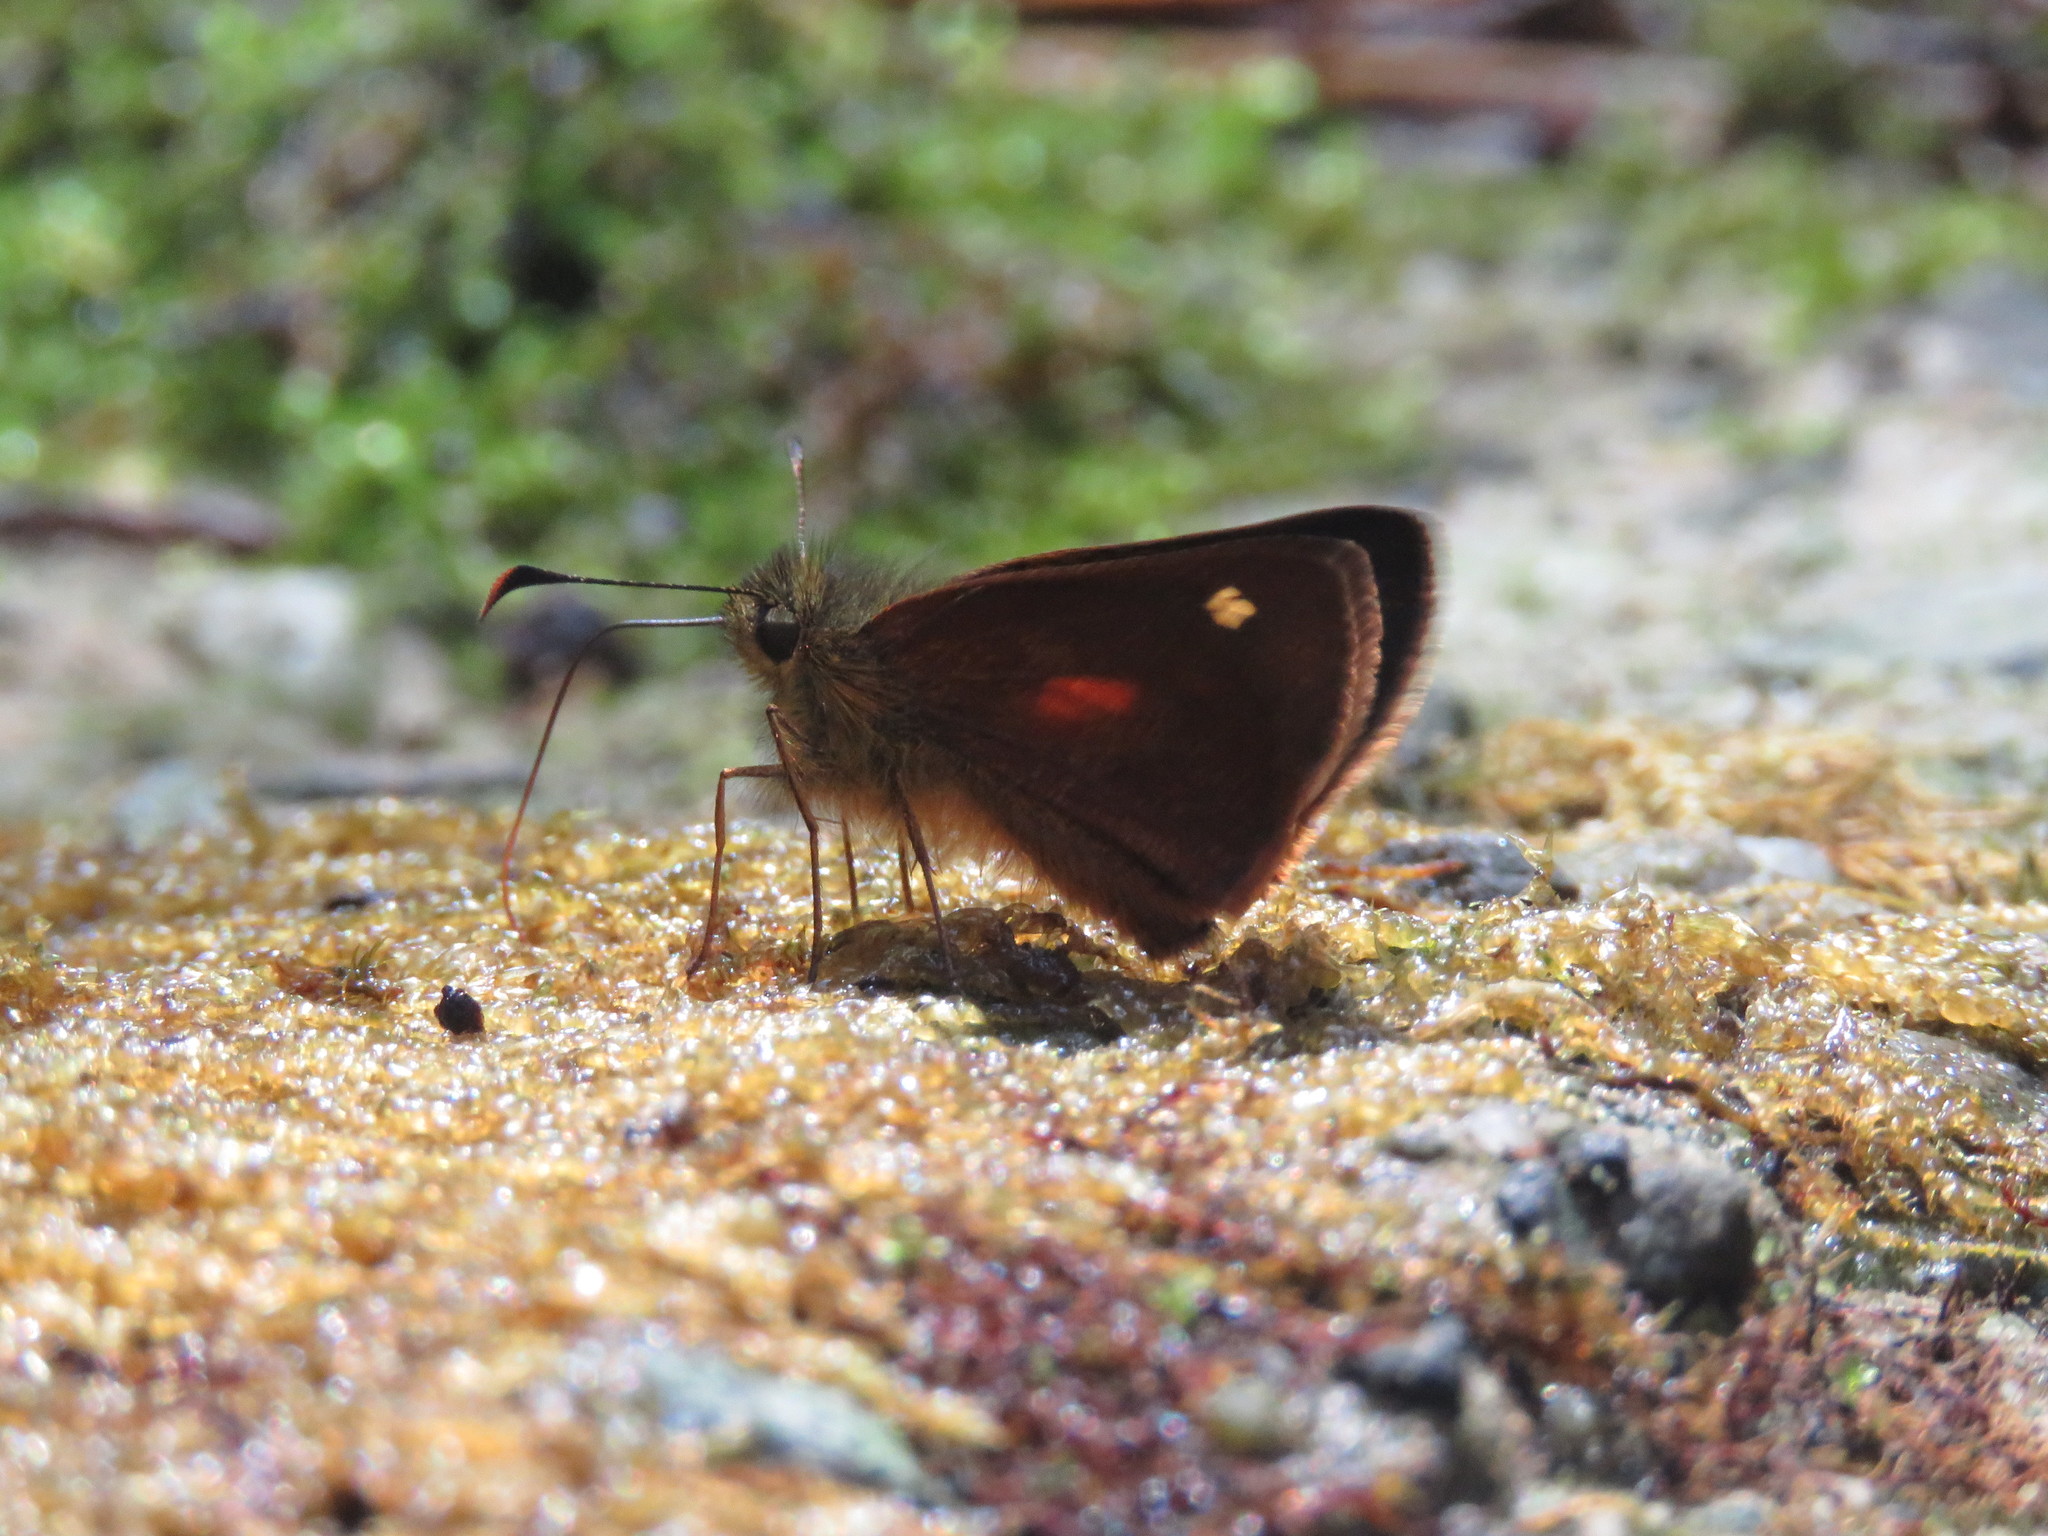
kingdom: Animalia
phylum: Arthropoda
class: Insecta
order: Lepidoptera
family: Hesperiidae
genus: Dalla
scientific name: Dalla caenides
